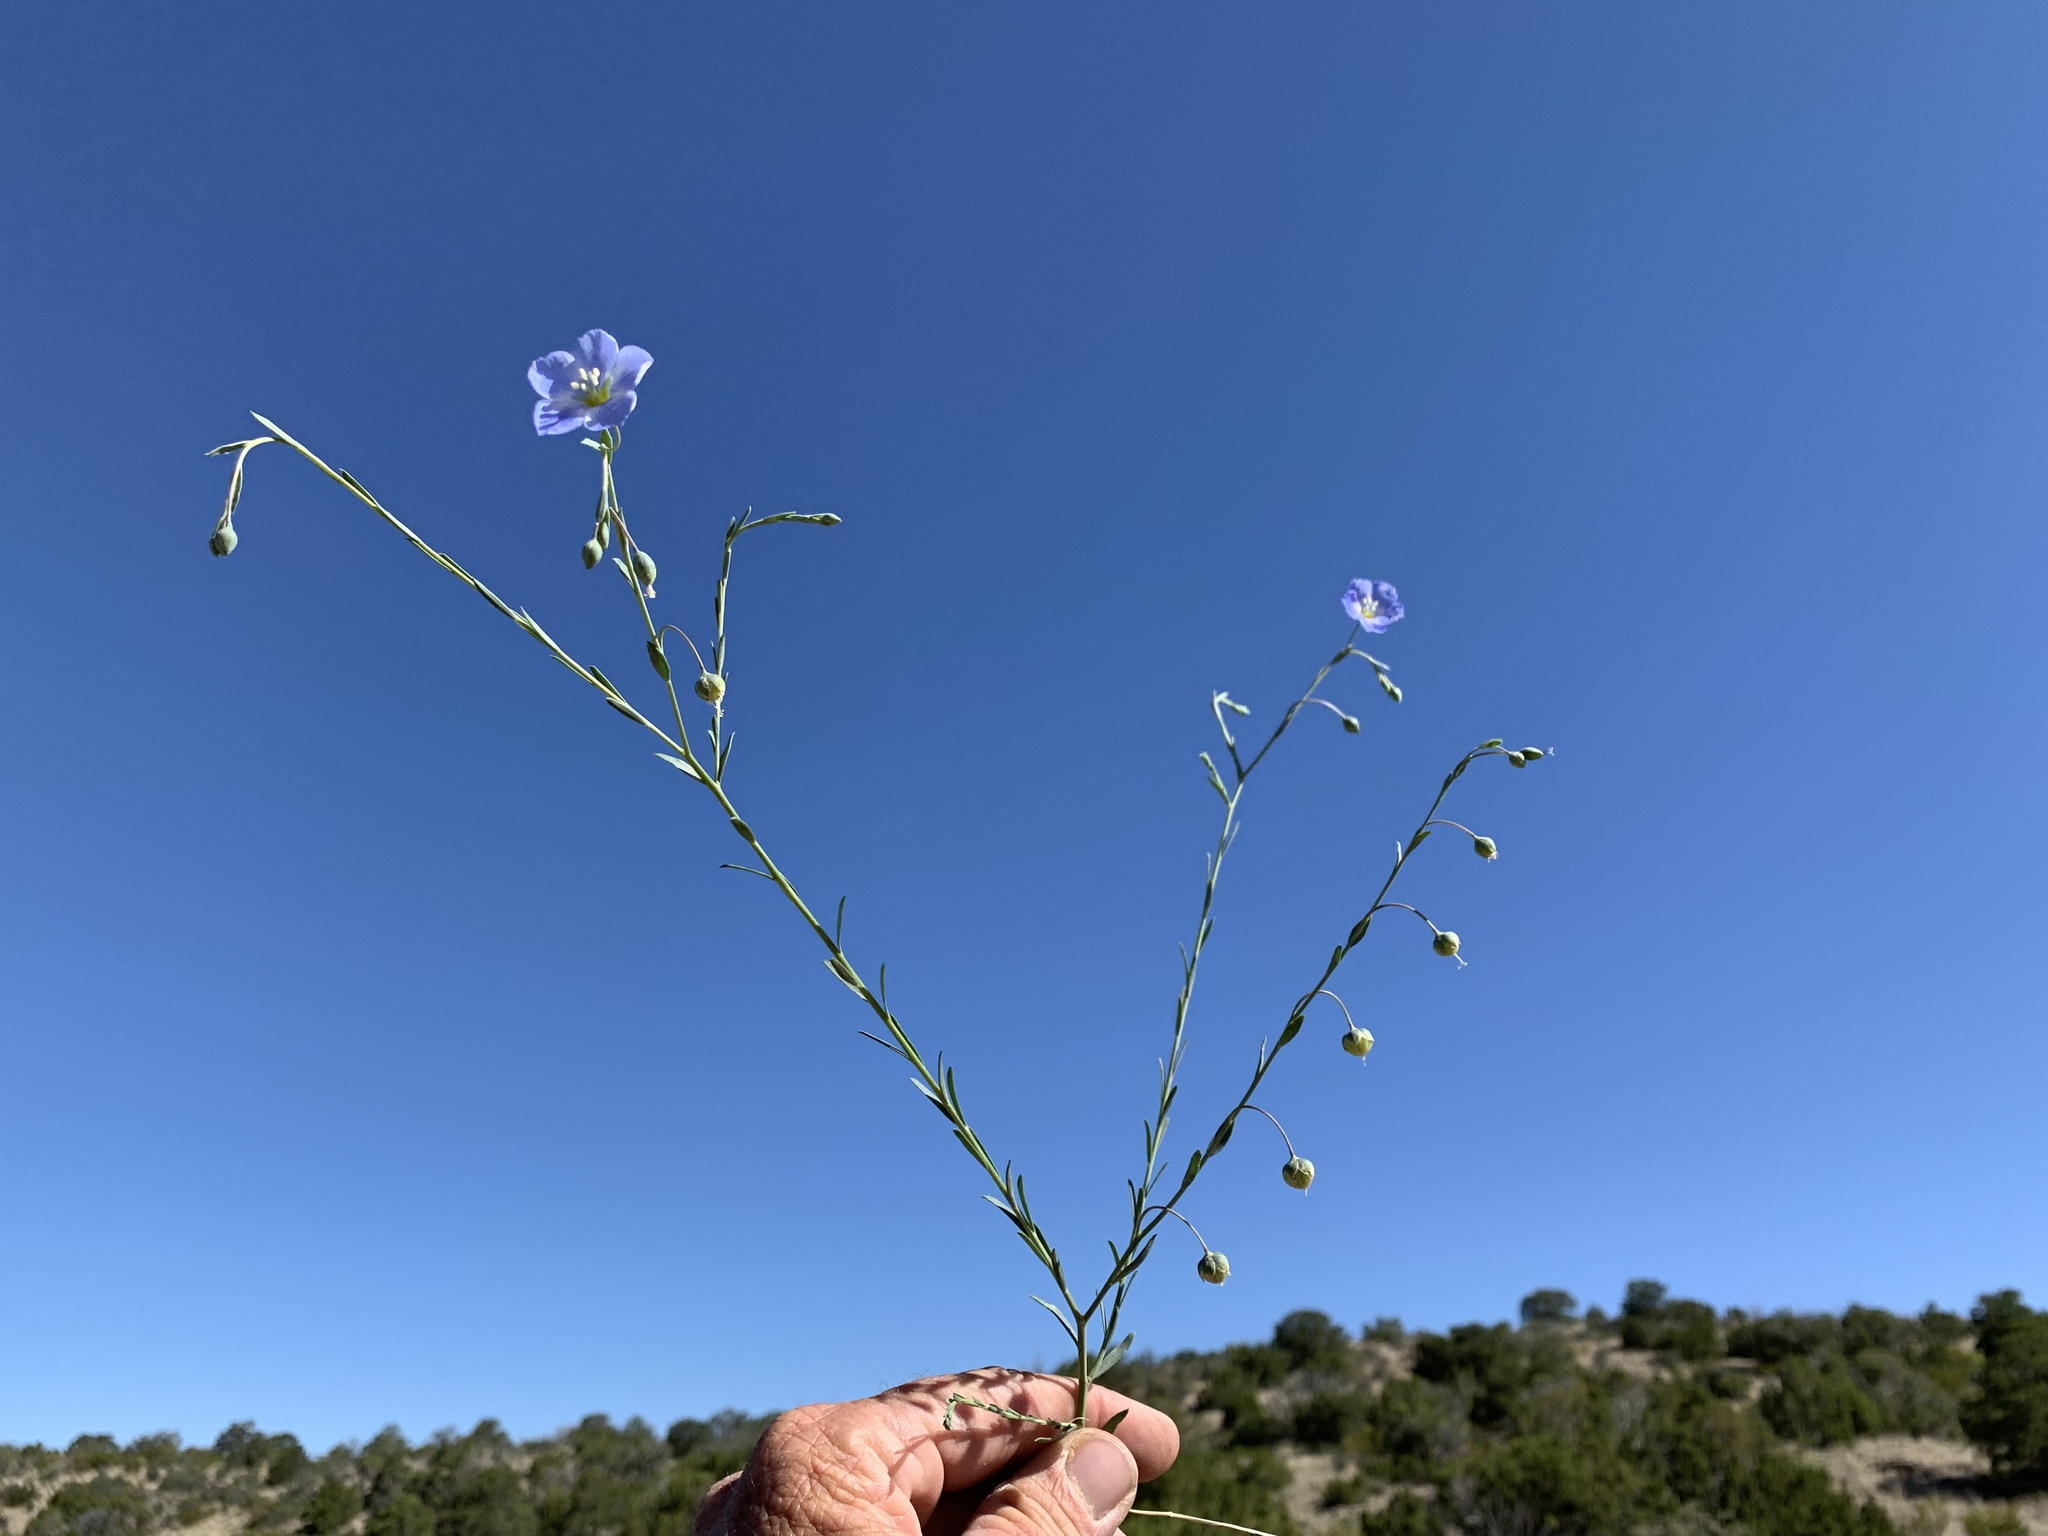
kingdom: Plantae
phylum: Tracheophyta
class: Magnoliopsida
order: Malpighiales
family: Linaceae
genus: Linum
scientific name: Linum lewisii
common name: Prairie flax
